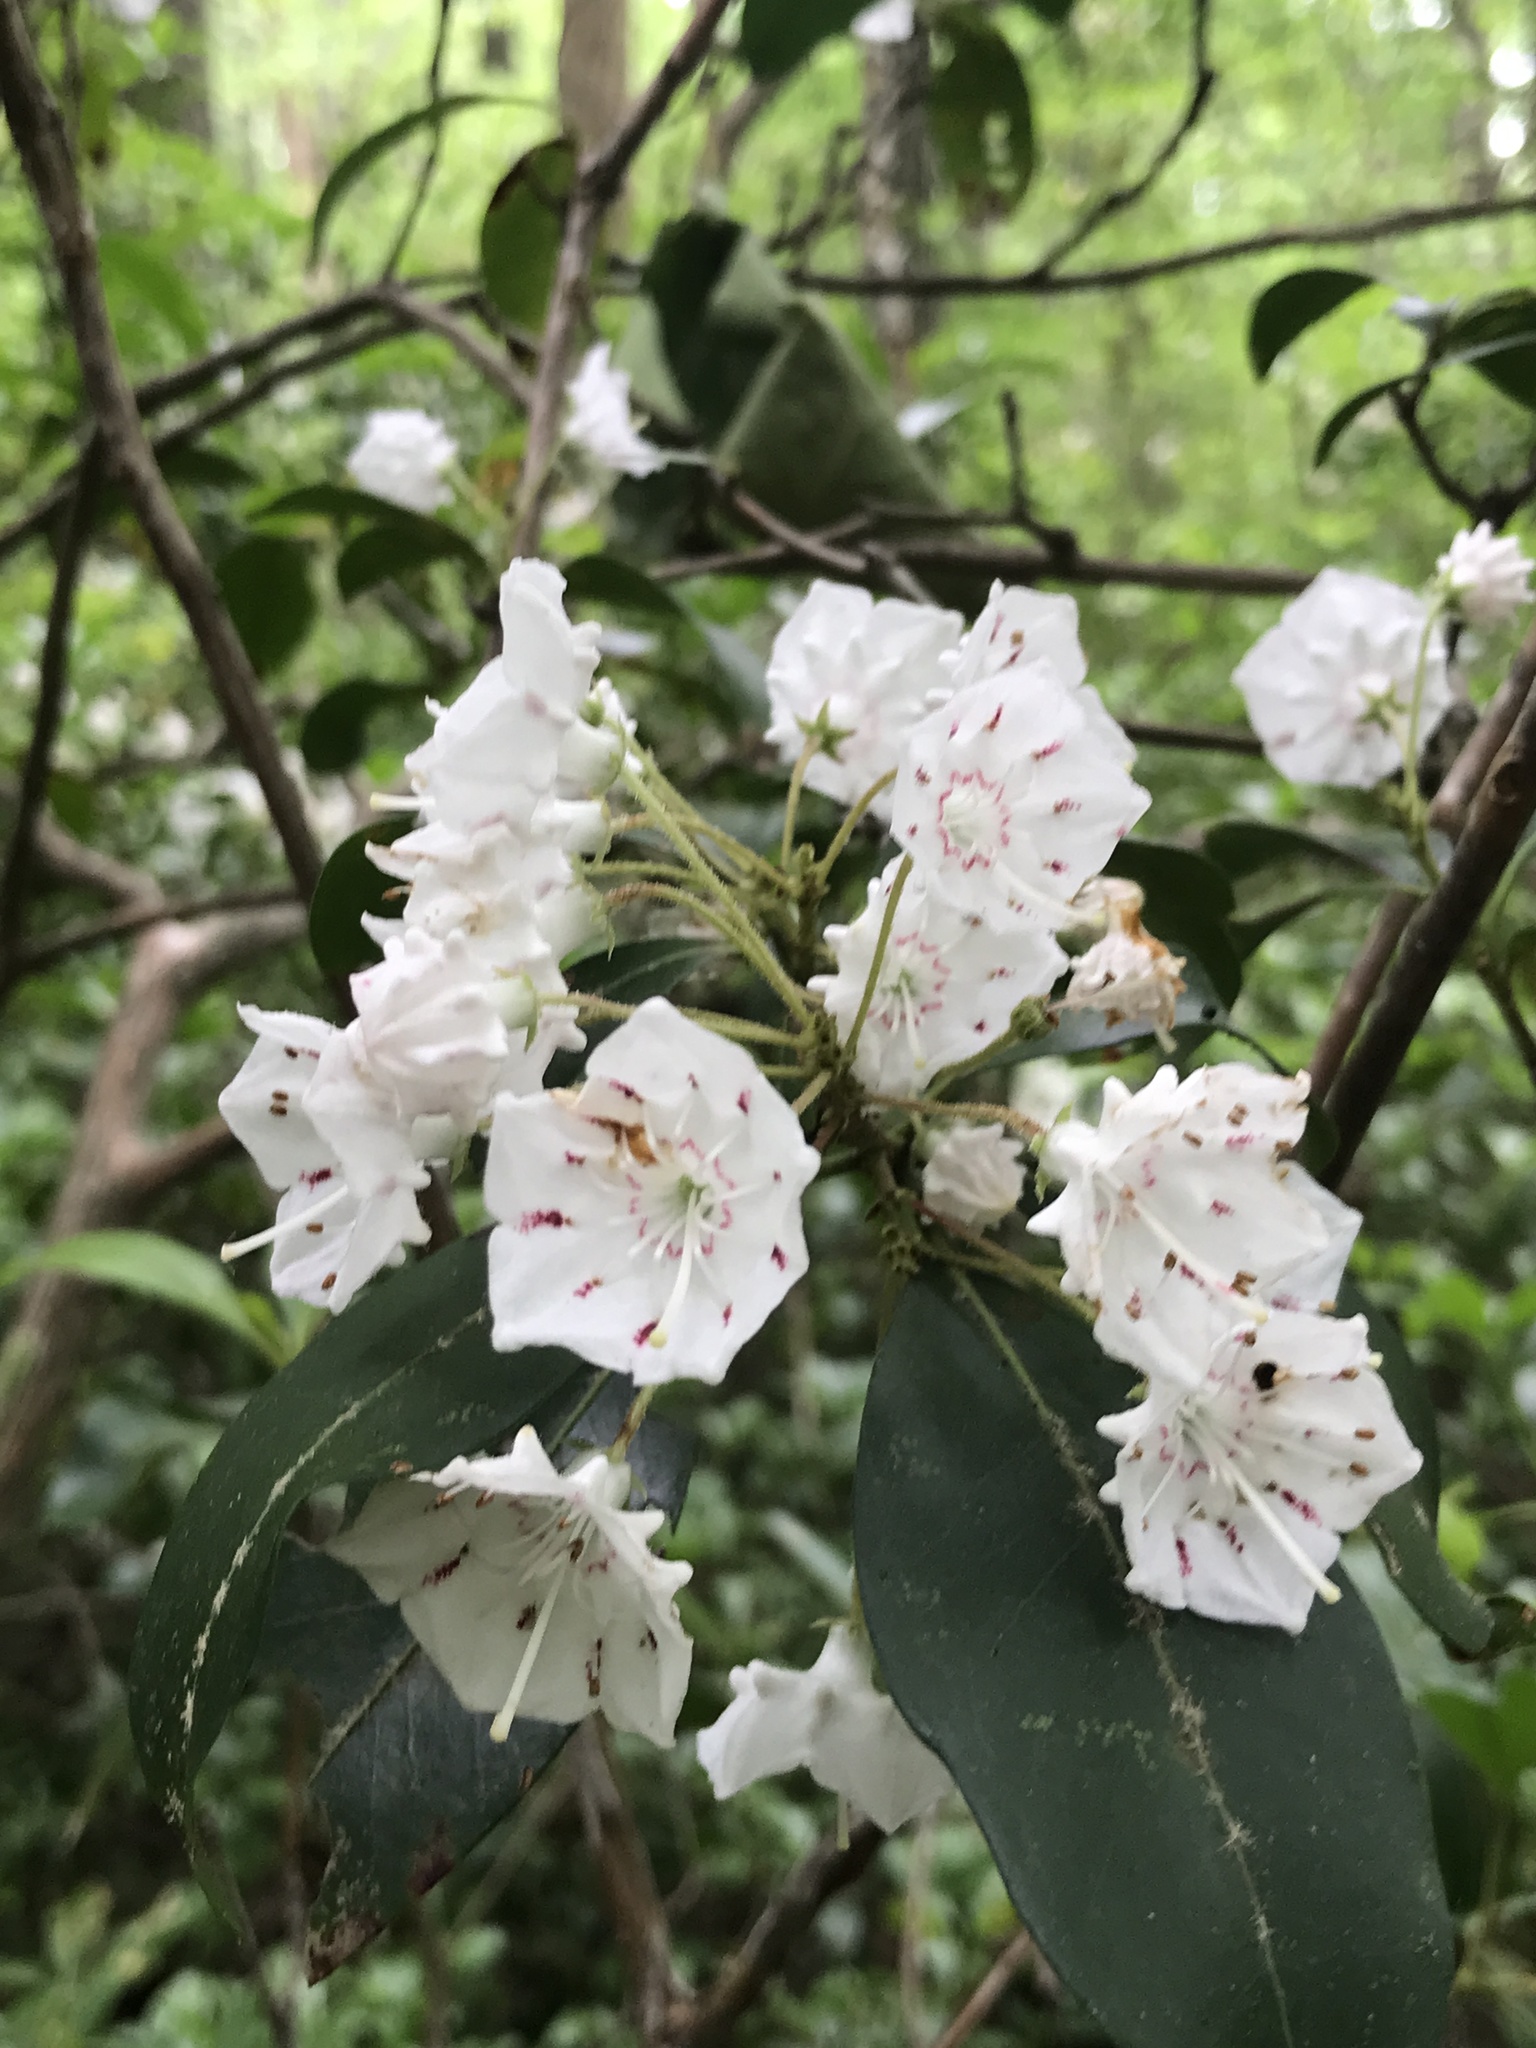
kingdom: Plantae
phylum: Tracheophyta
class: Magnoliopsida
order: Ericales
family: Ericaceae
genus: Kalmia
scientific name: Kalmia latifolia
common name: Mountain-laurel
